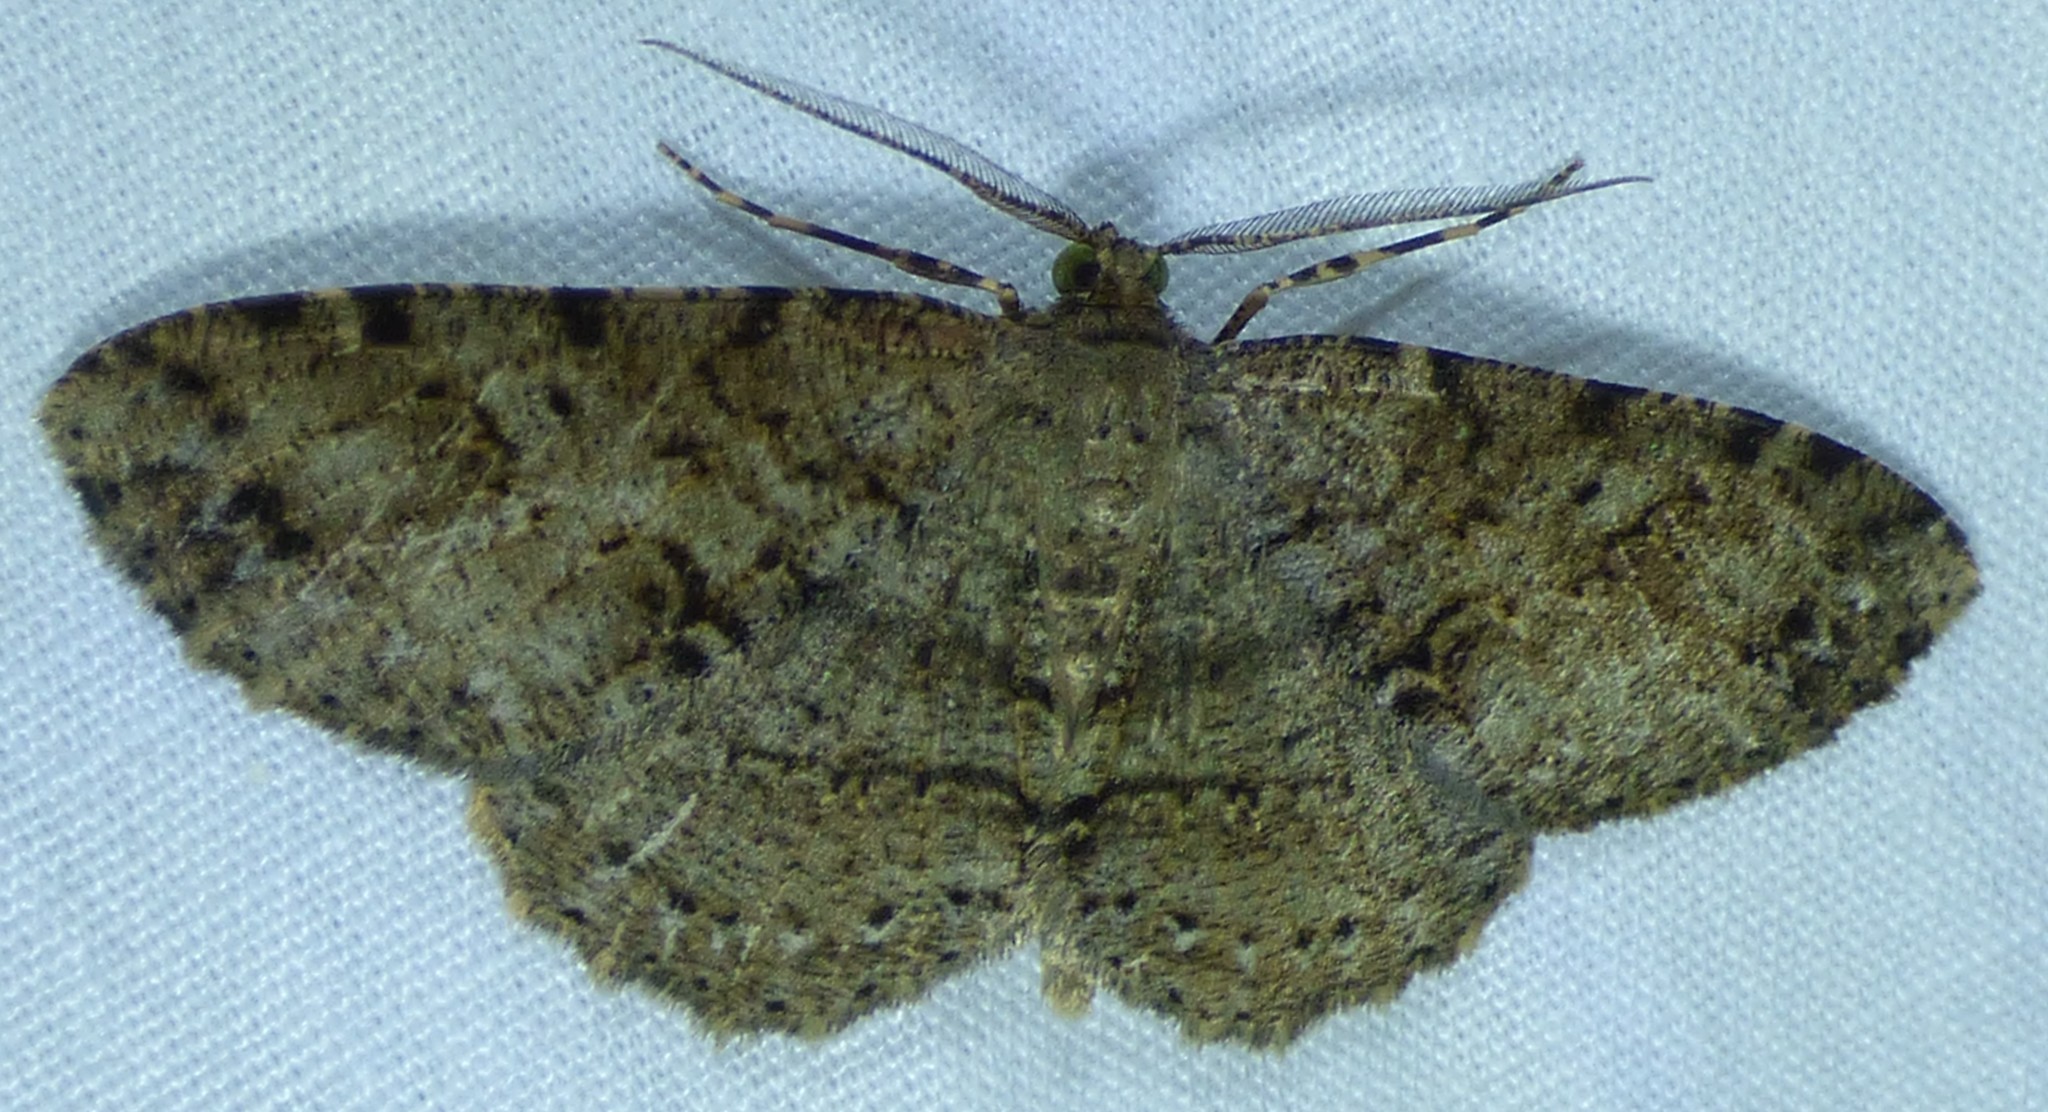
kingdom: Animalia
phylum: Arthropoda
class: Insecta
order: Lepidoptera
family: Geometridae
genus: Melanolophia
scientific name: Melanolophia canadaria
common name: Canadian melanolophia
